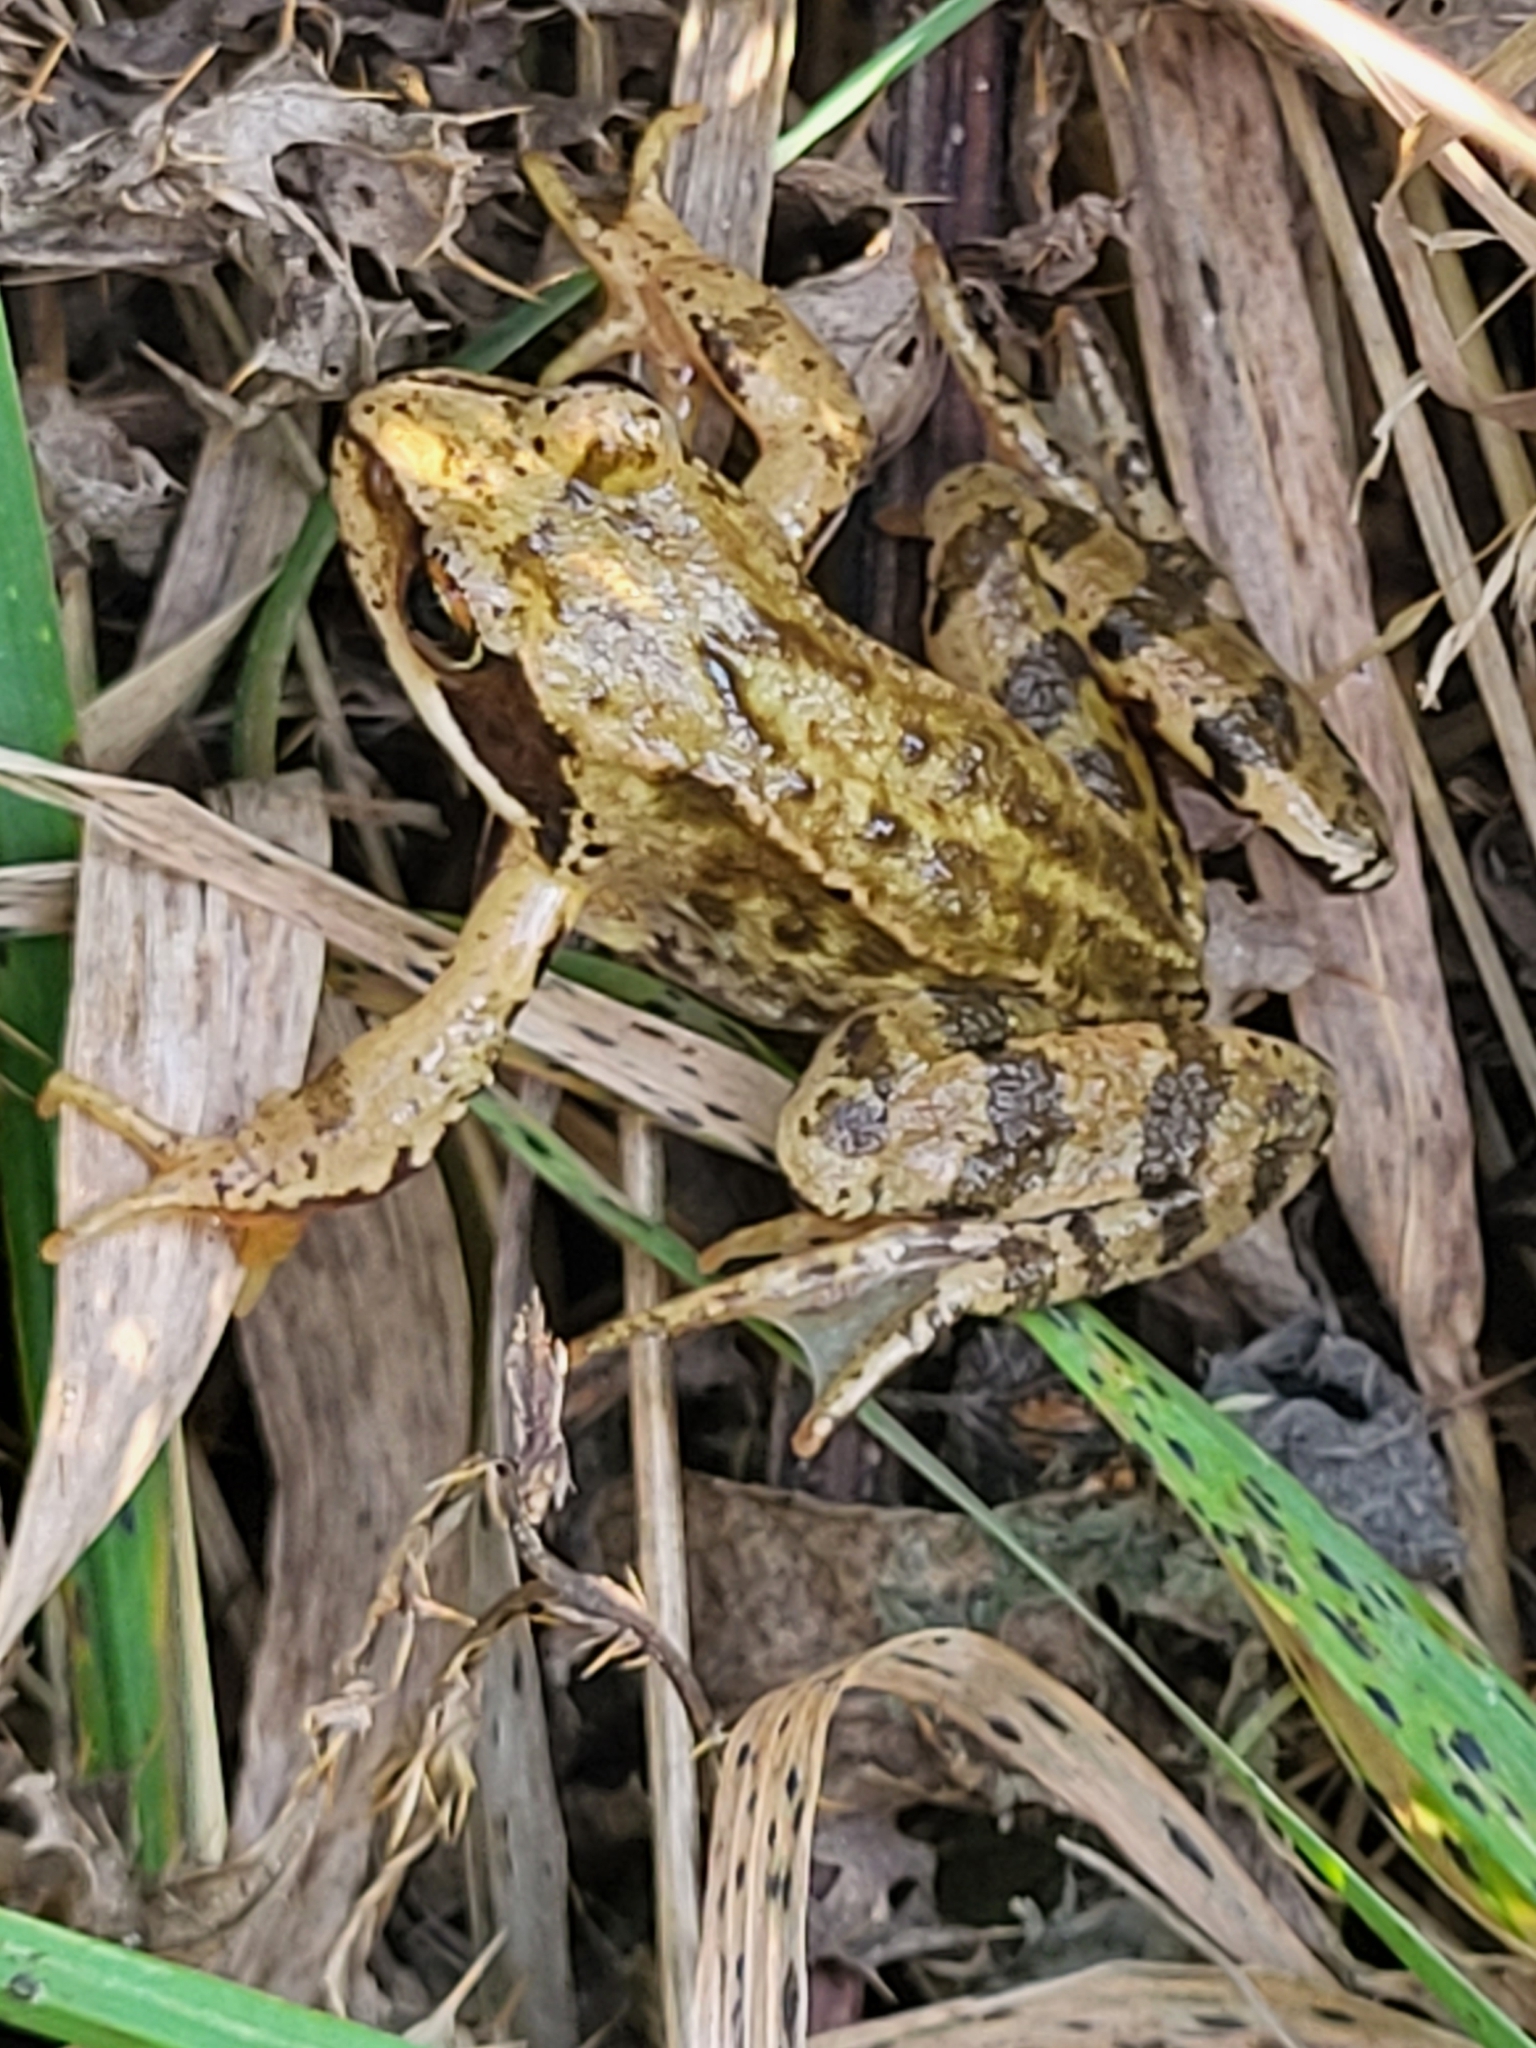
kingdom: Animalia
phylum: Chordata
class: Amphibia
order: Anura
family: Ranidae
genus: Rana
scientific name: Rana temporaria
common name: Common frog
